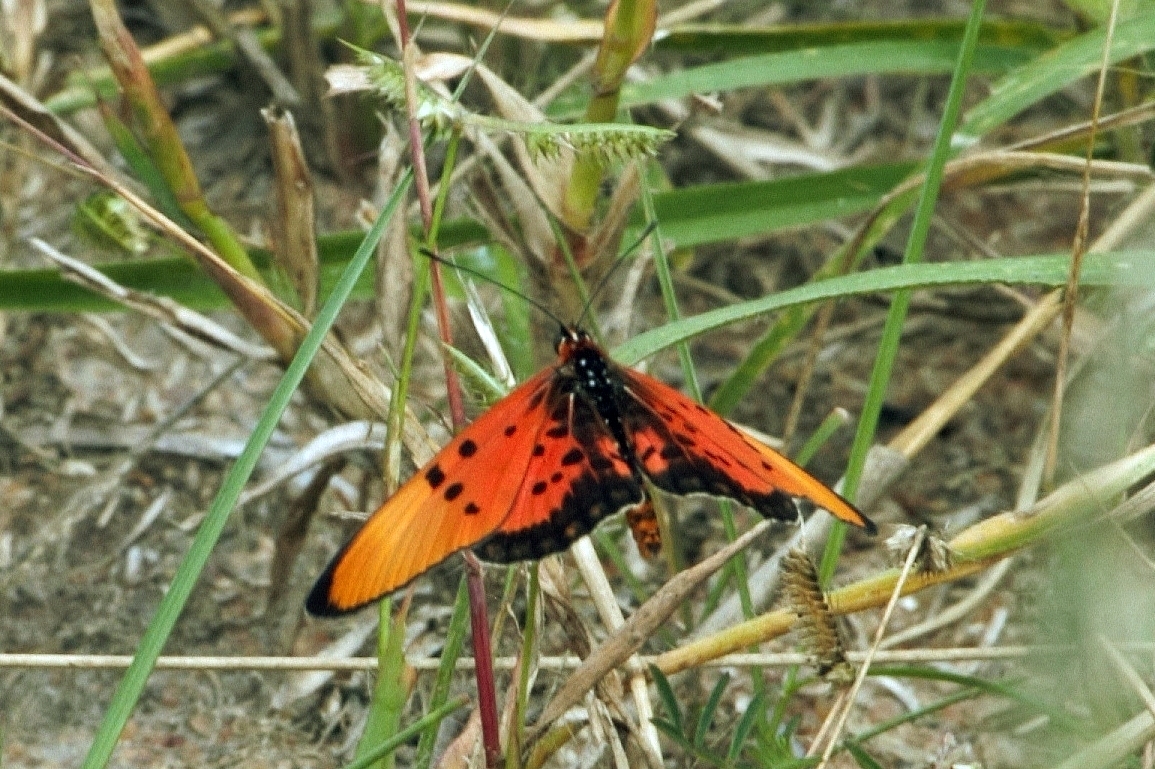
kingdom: Animalia
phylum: Arthropoda
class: Insecta
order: Lepidoptera
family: Nymphalidae
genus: Rubraea
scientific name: Rubraea
